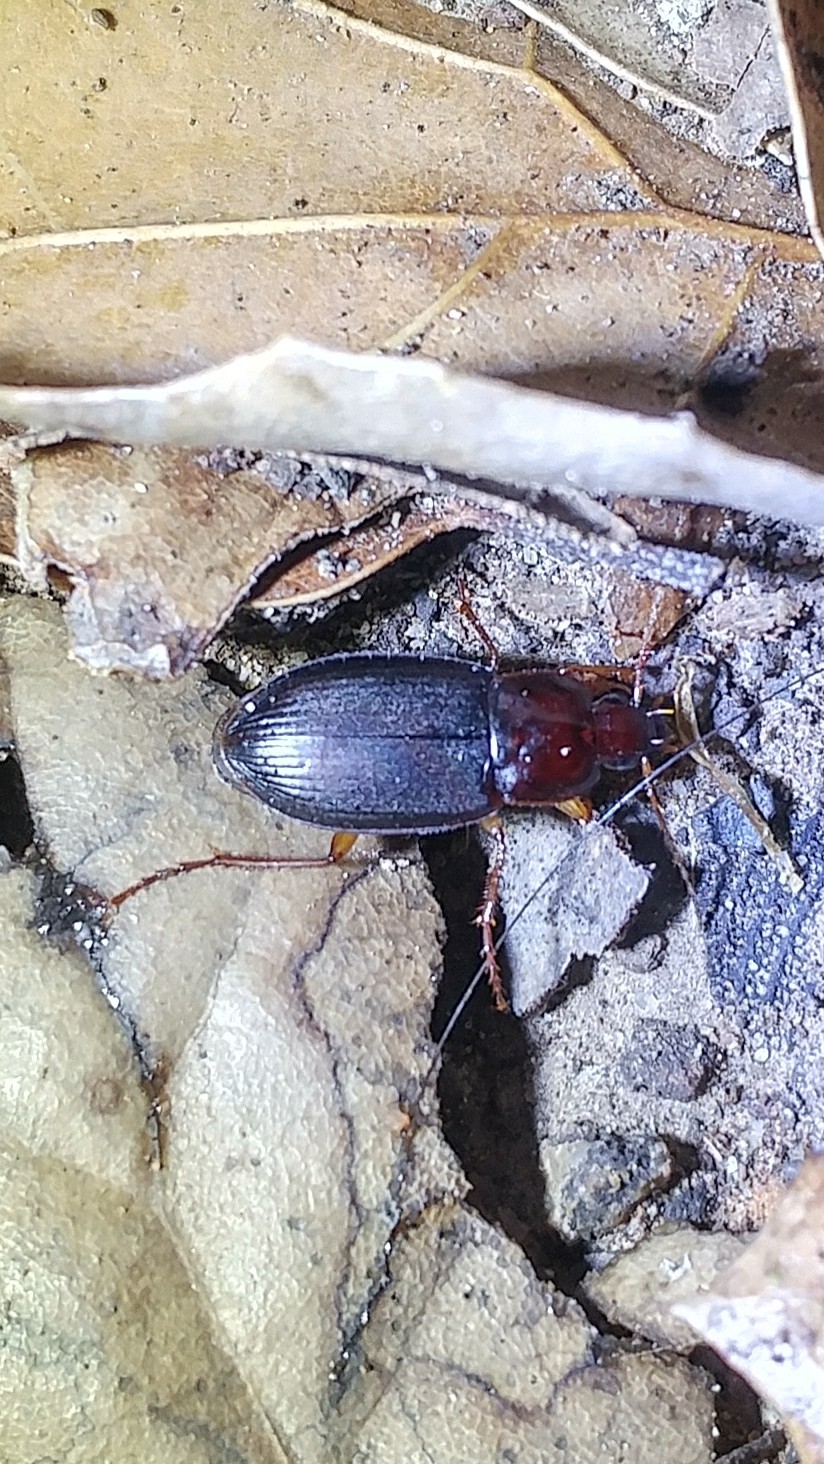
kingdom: Animalia
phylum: Arthropoda
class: Insecta
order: Coleoptera
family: Carabidae
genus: Calathus
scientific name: Calathus ruficollis
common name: Red-collared harp ground beetle
